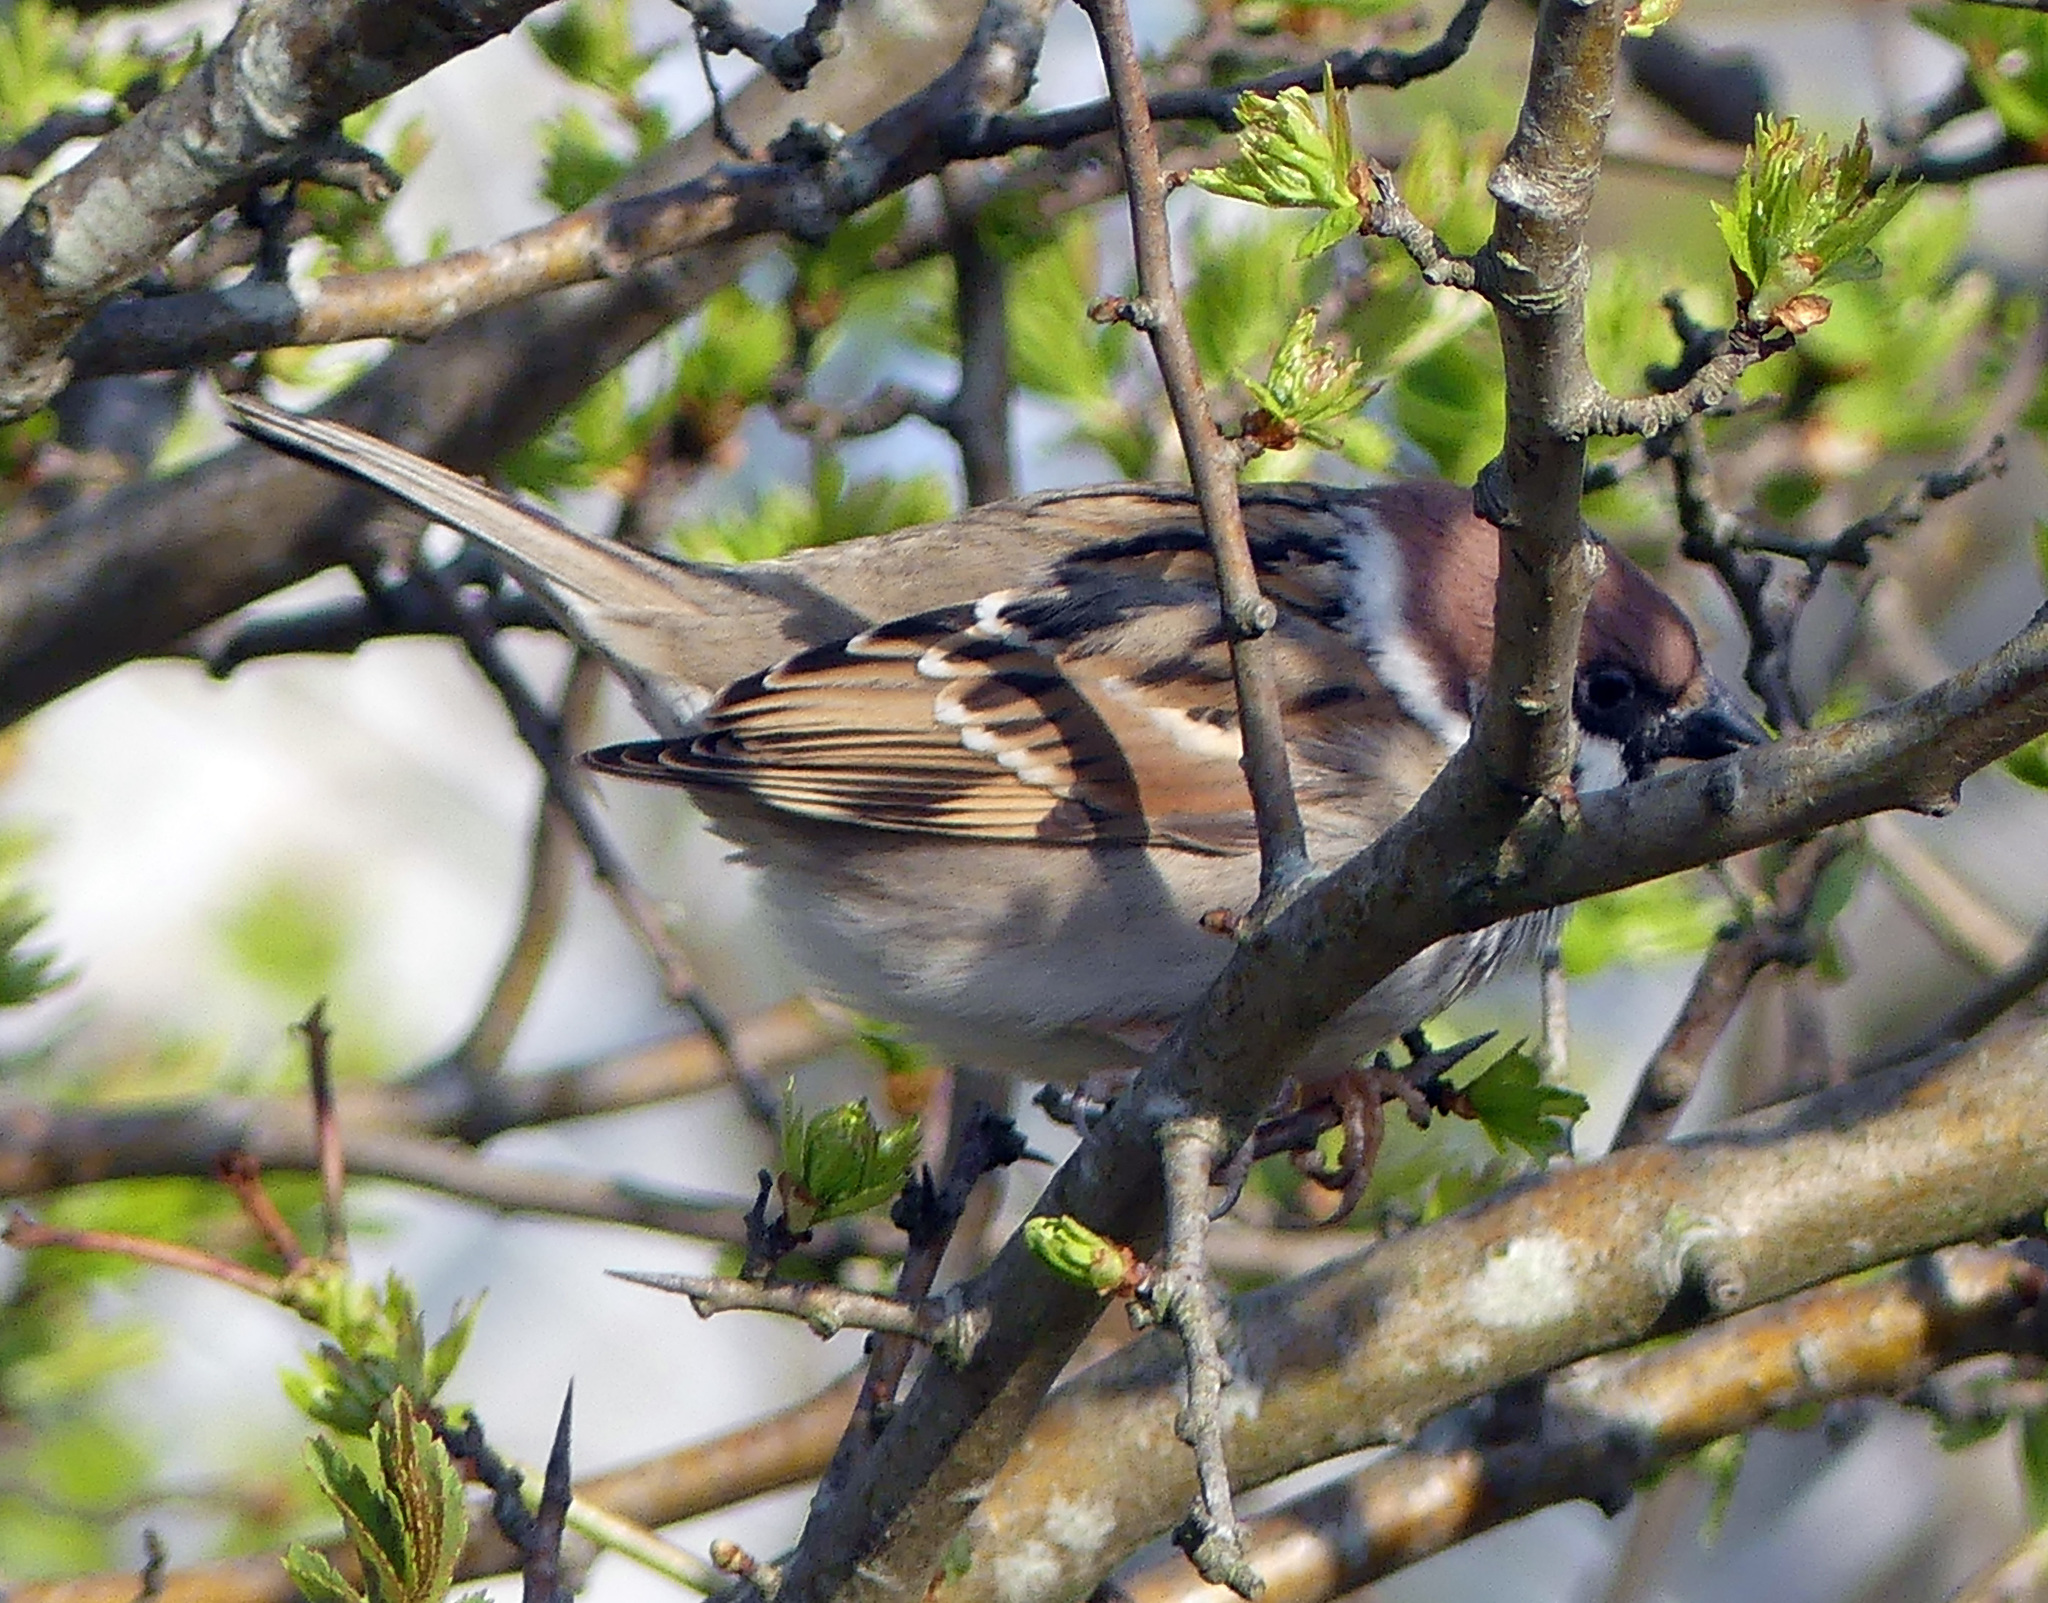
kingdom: Animalia
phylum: Chordata
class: Aves
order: Passeriformes
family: Passeridae
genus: Passer
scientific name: Passer montanus
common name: Eurasian tree sparrow
